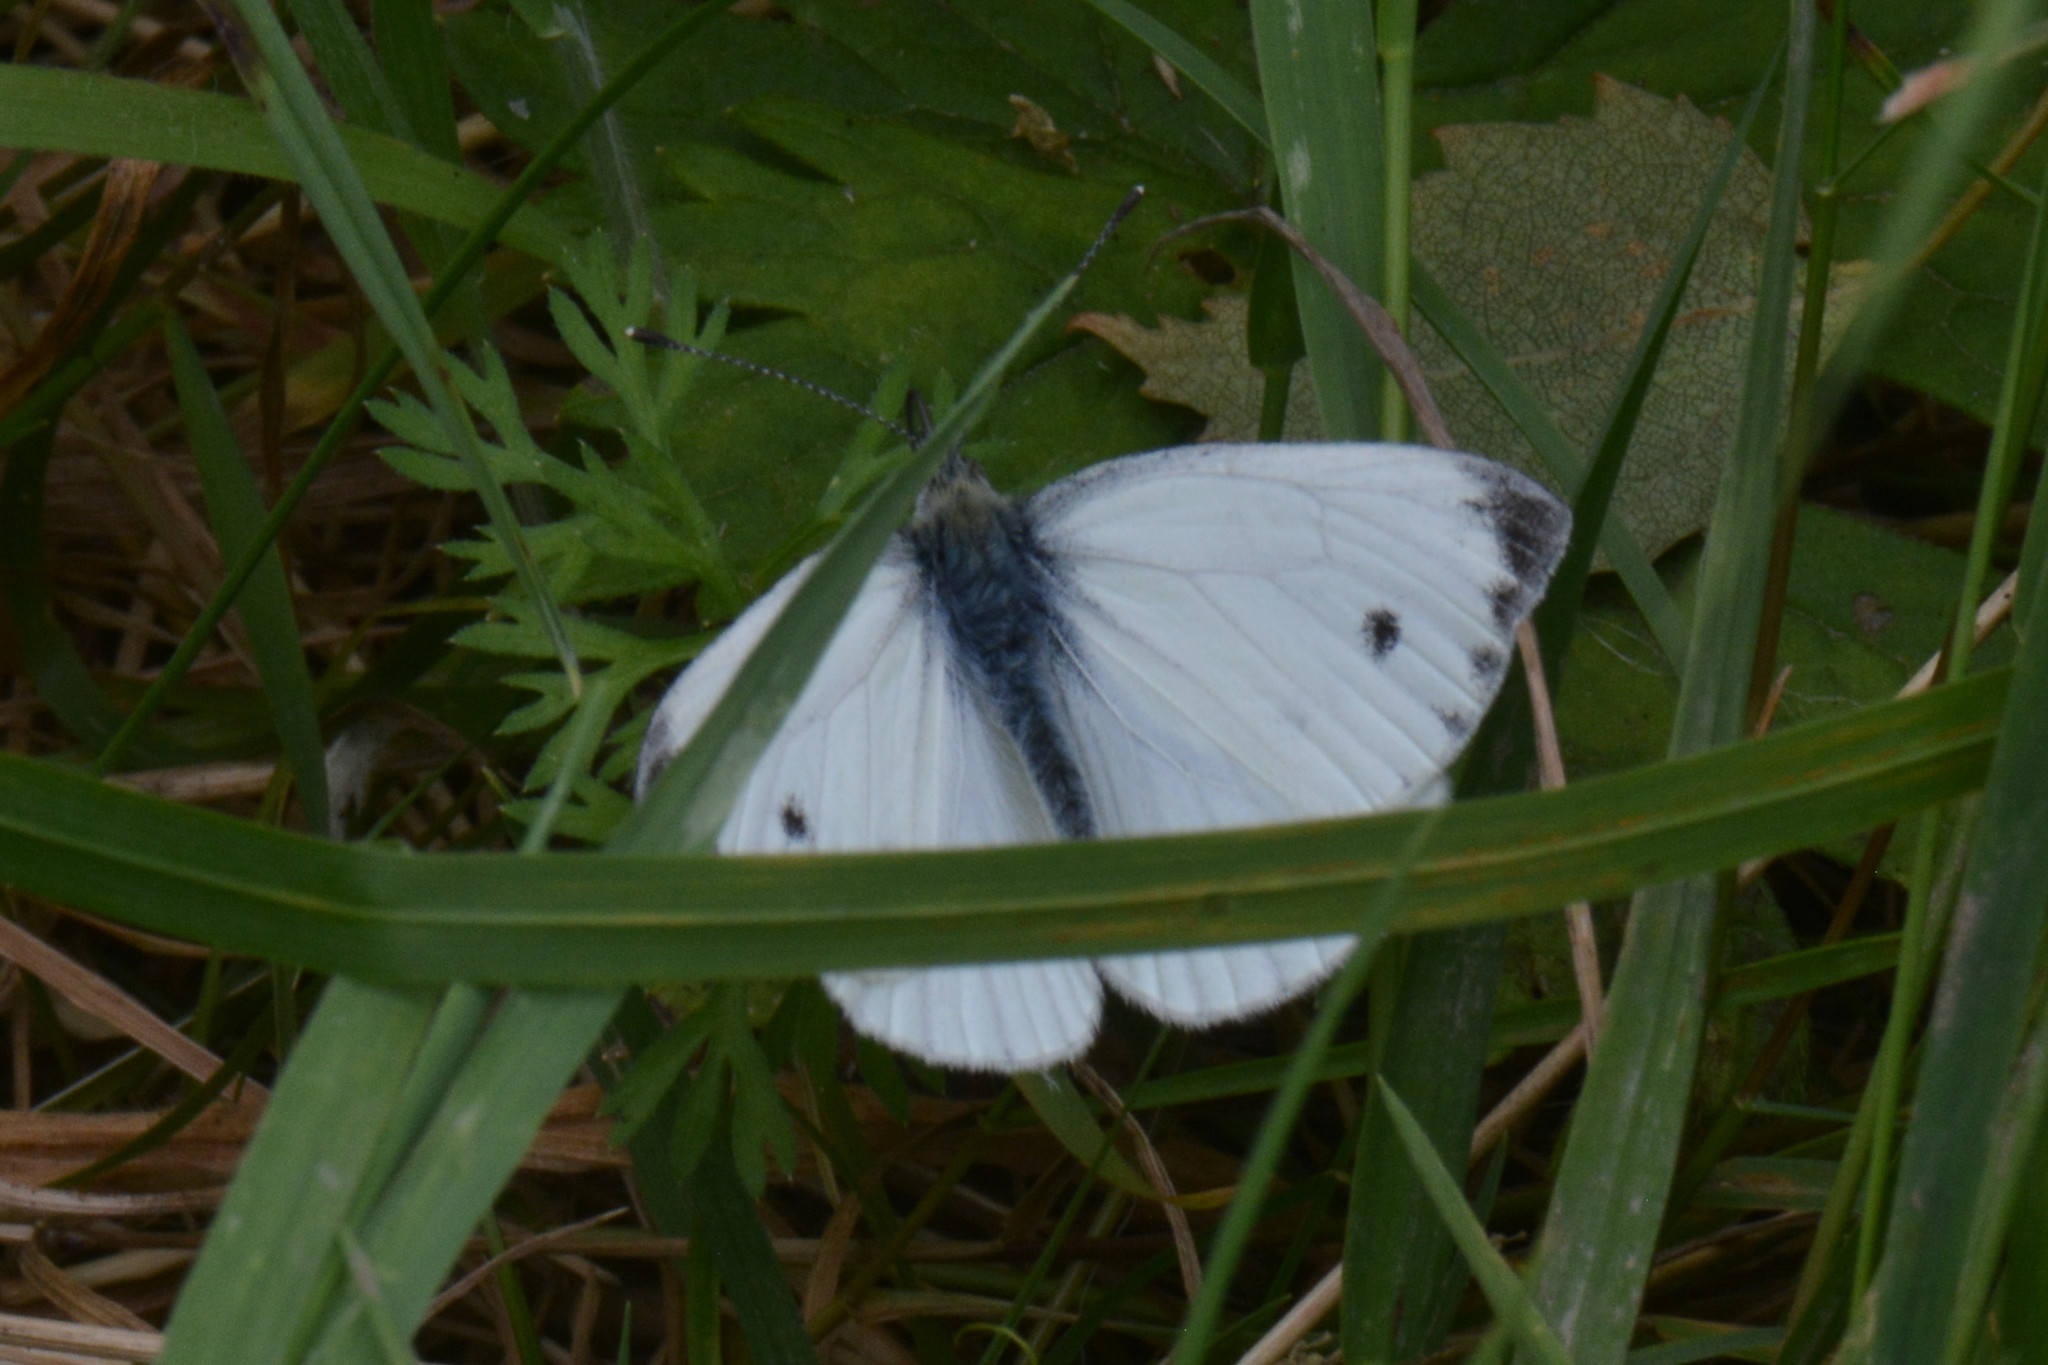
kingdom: Animalia
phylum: Arthropoda
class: Insecta
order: Lepidoptera
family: Pieridae
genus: Pieris
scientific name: Pieris napi
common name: Green-veined white
